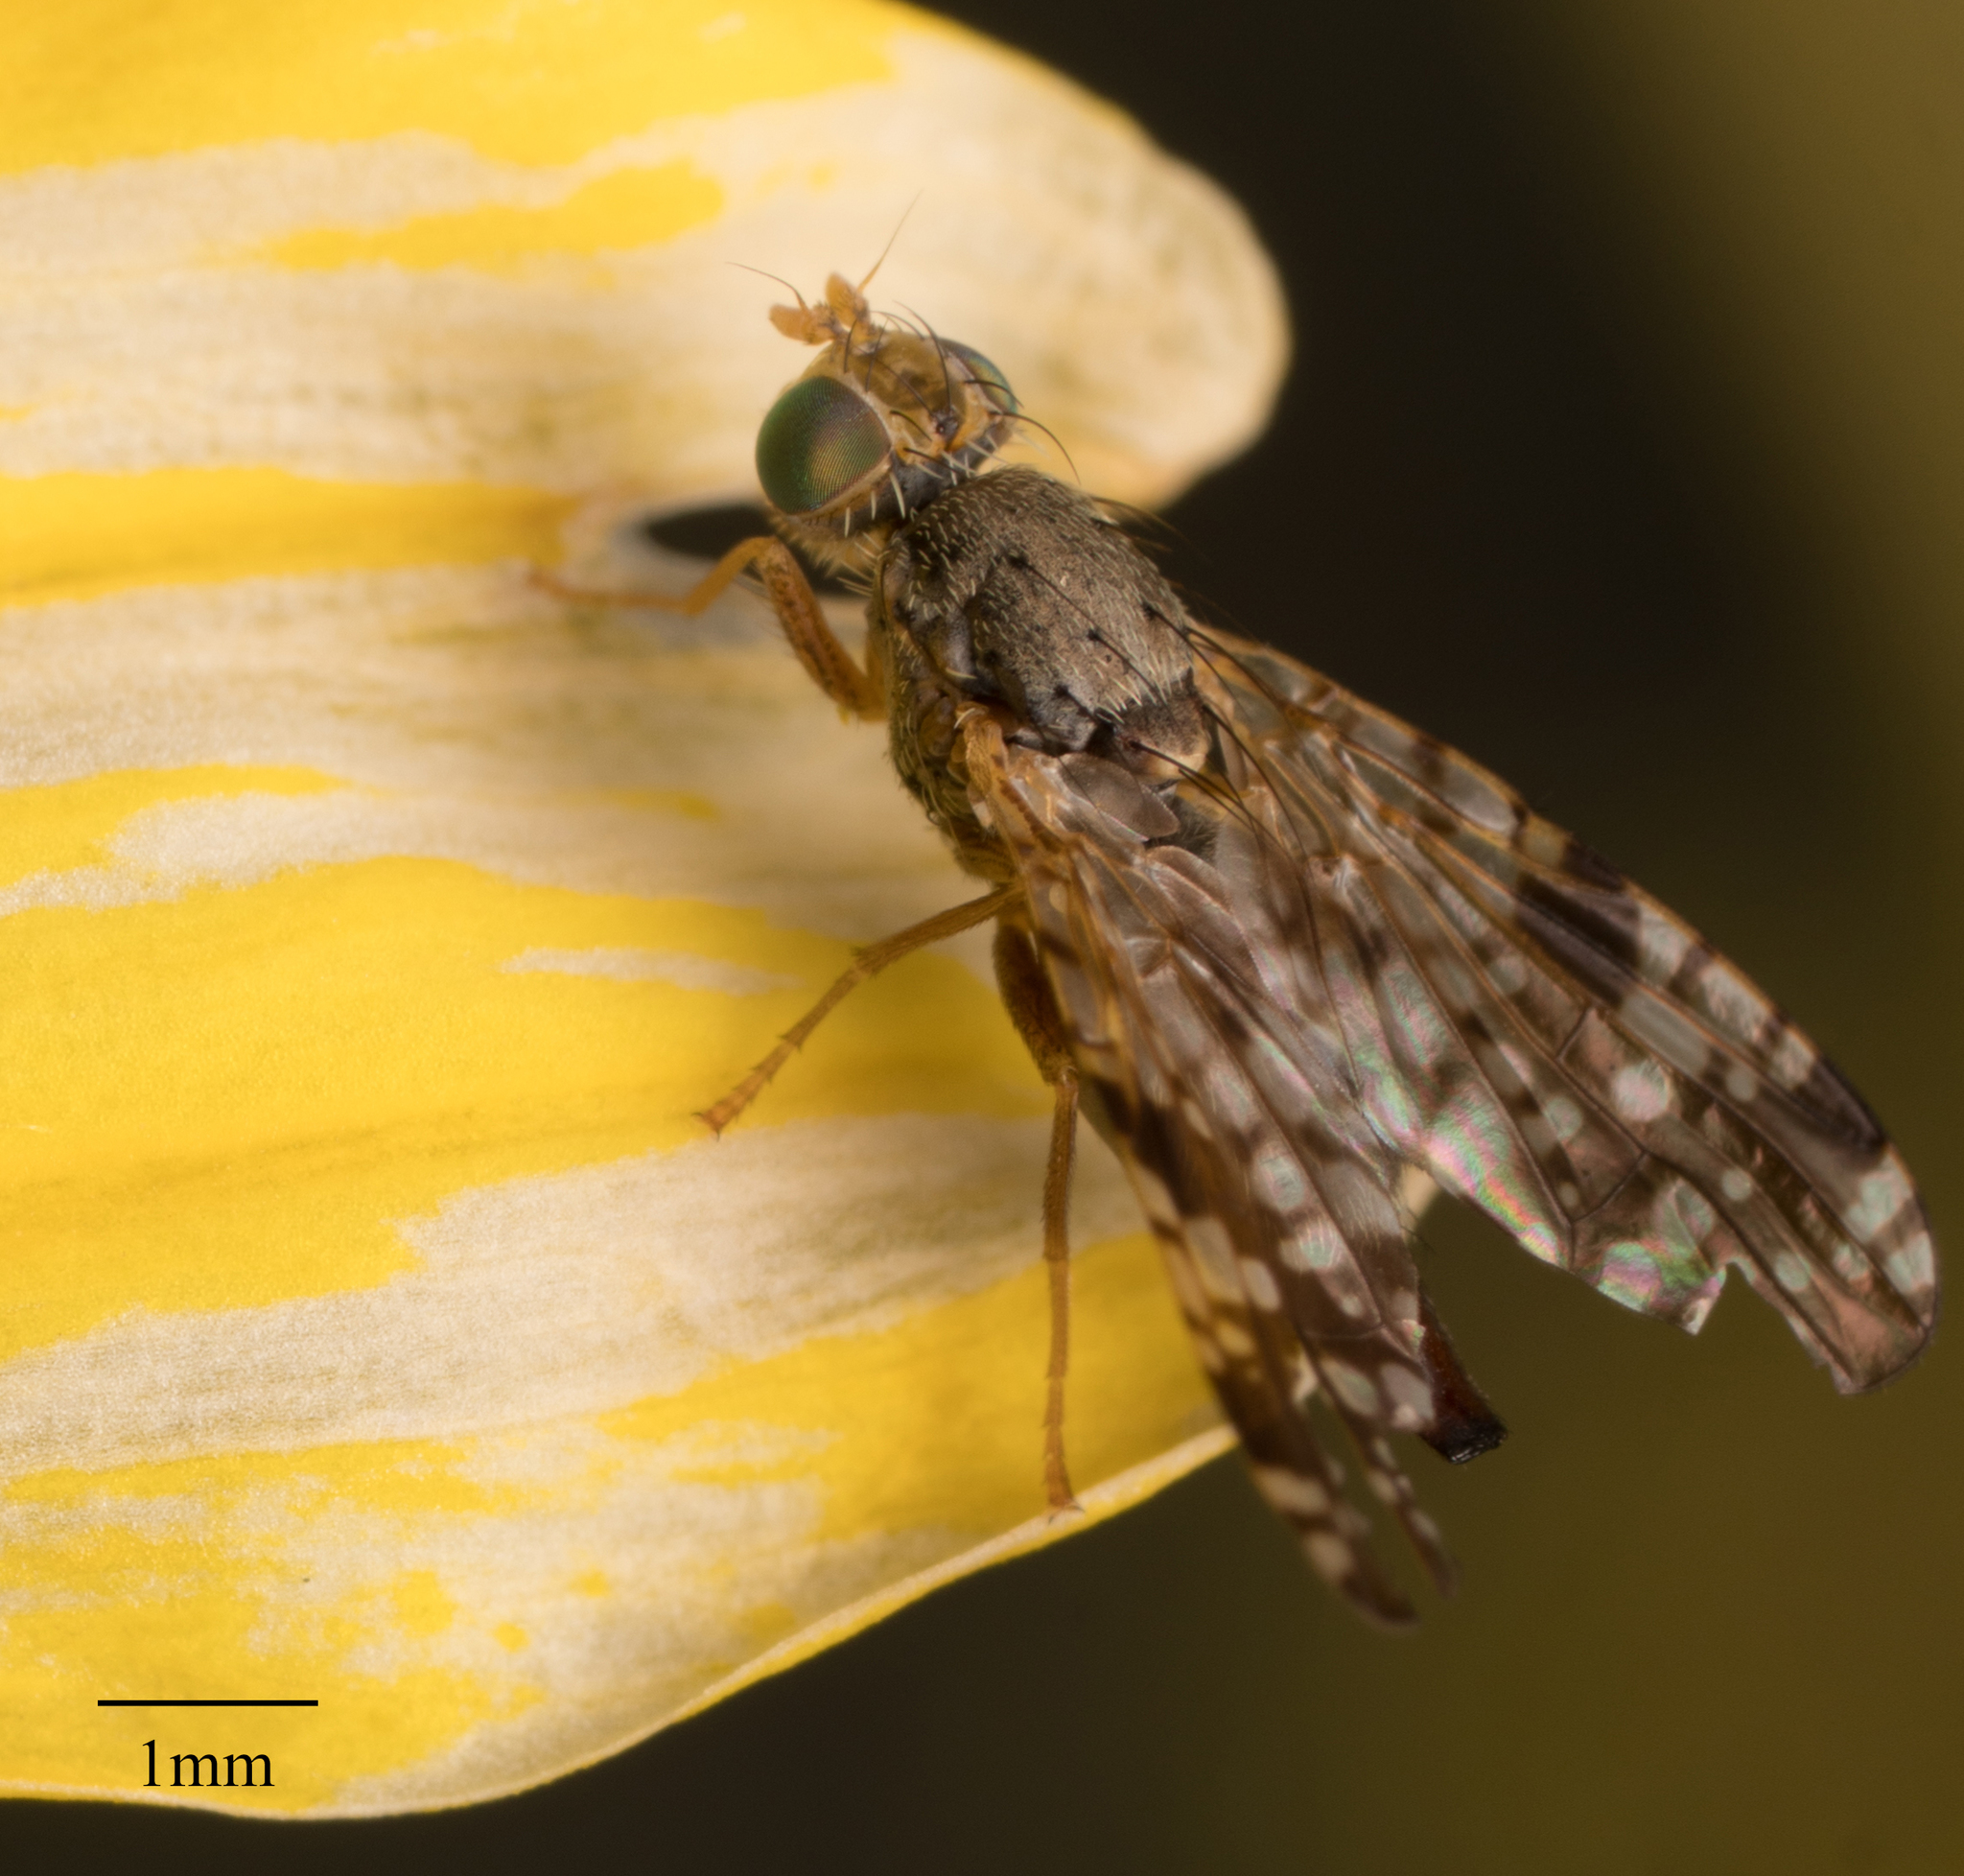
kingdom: Animalia
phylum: Arthropoda
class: Insecta
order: Diptera
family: Tephritidae
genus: Neotephritis
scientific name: Neotephritis finalis
